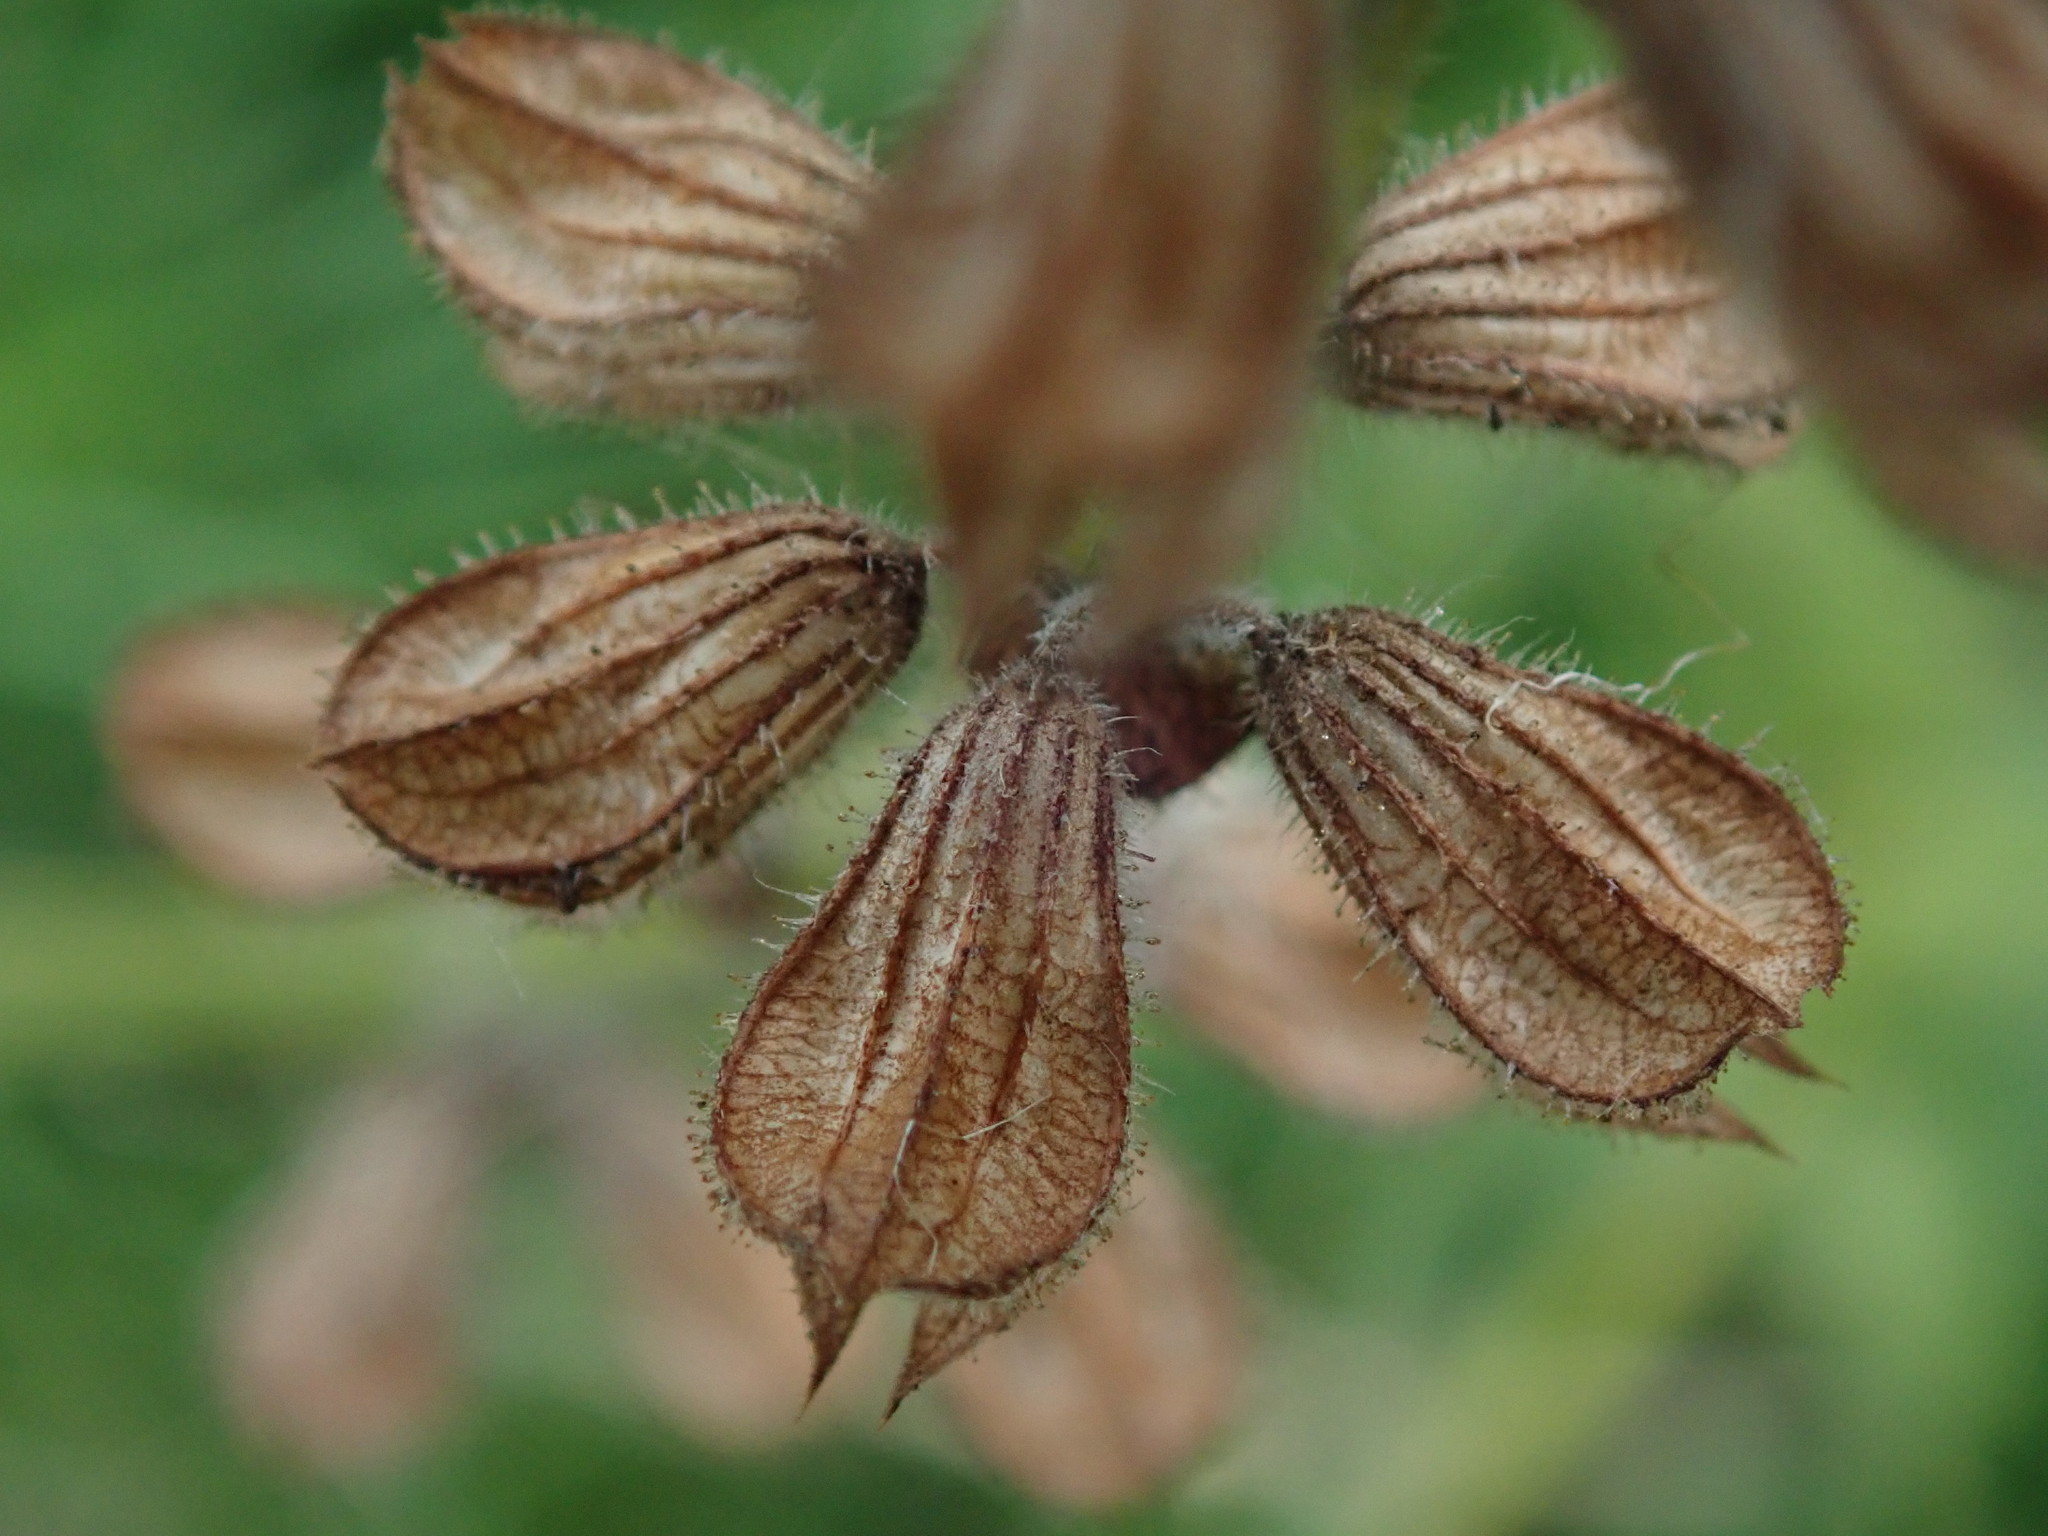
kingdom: Plantae
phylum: Tracheophyta
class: Magnoliopsida
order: Lamiales
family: Lamiaceae
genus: Salvia
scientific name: Salvia pratensis
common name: Meadow sage
